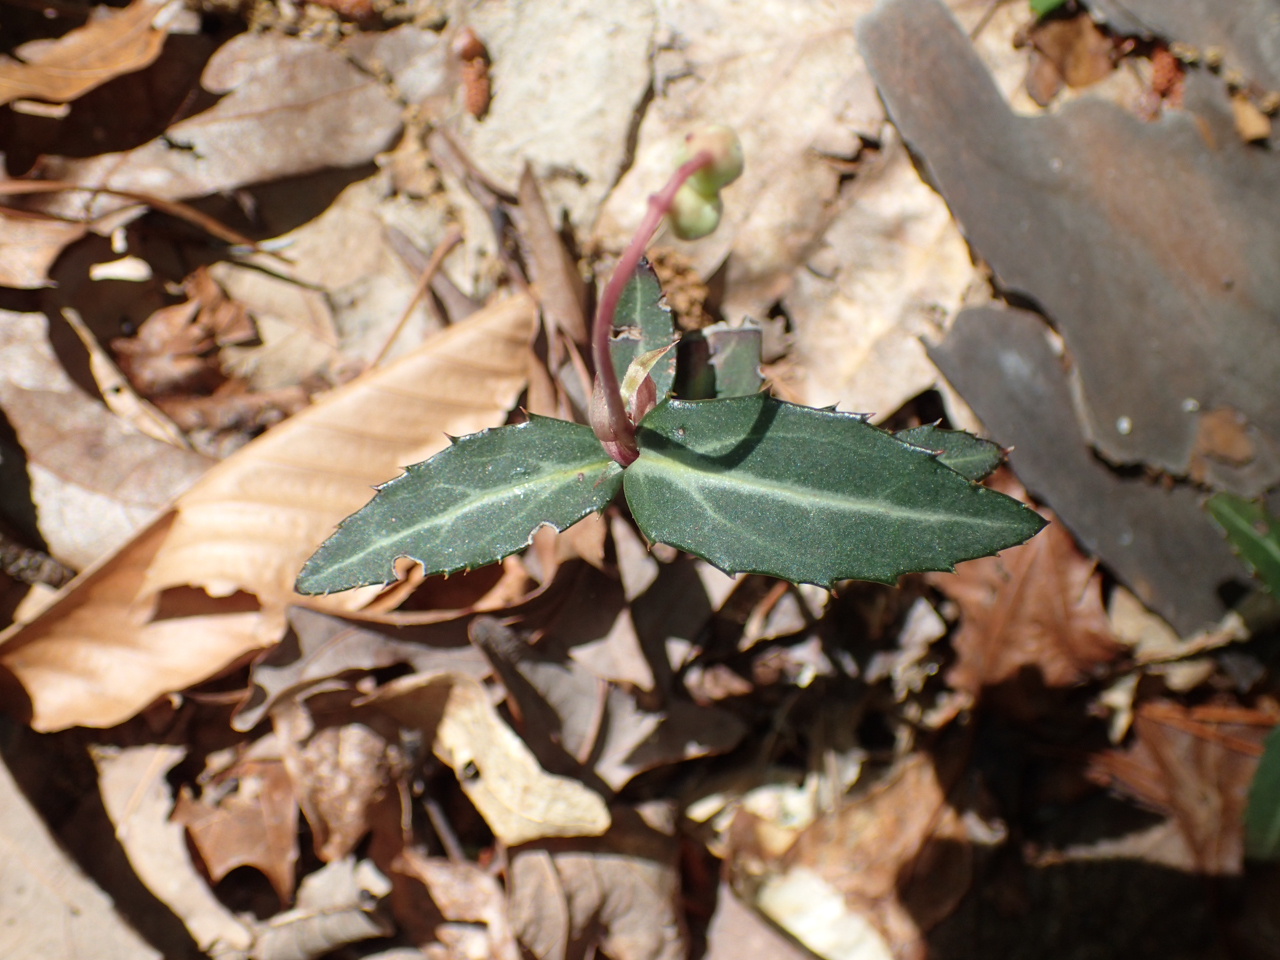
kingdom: Plantae
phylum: Tracheophyta
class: Magnoliopsida
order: Ericales
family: Ericaceae
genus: Chimaphila
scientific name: Chimaphila maculata
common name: Spotted pipsissewa
